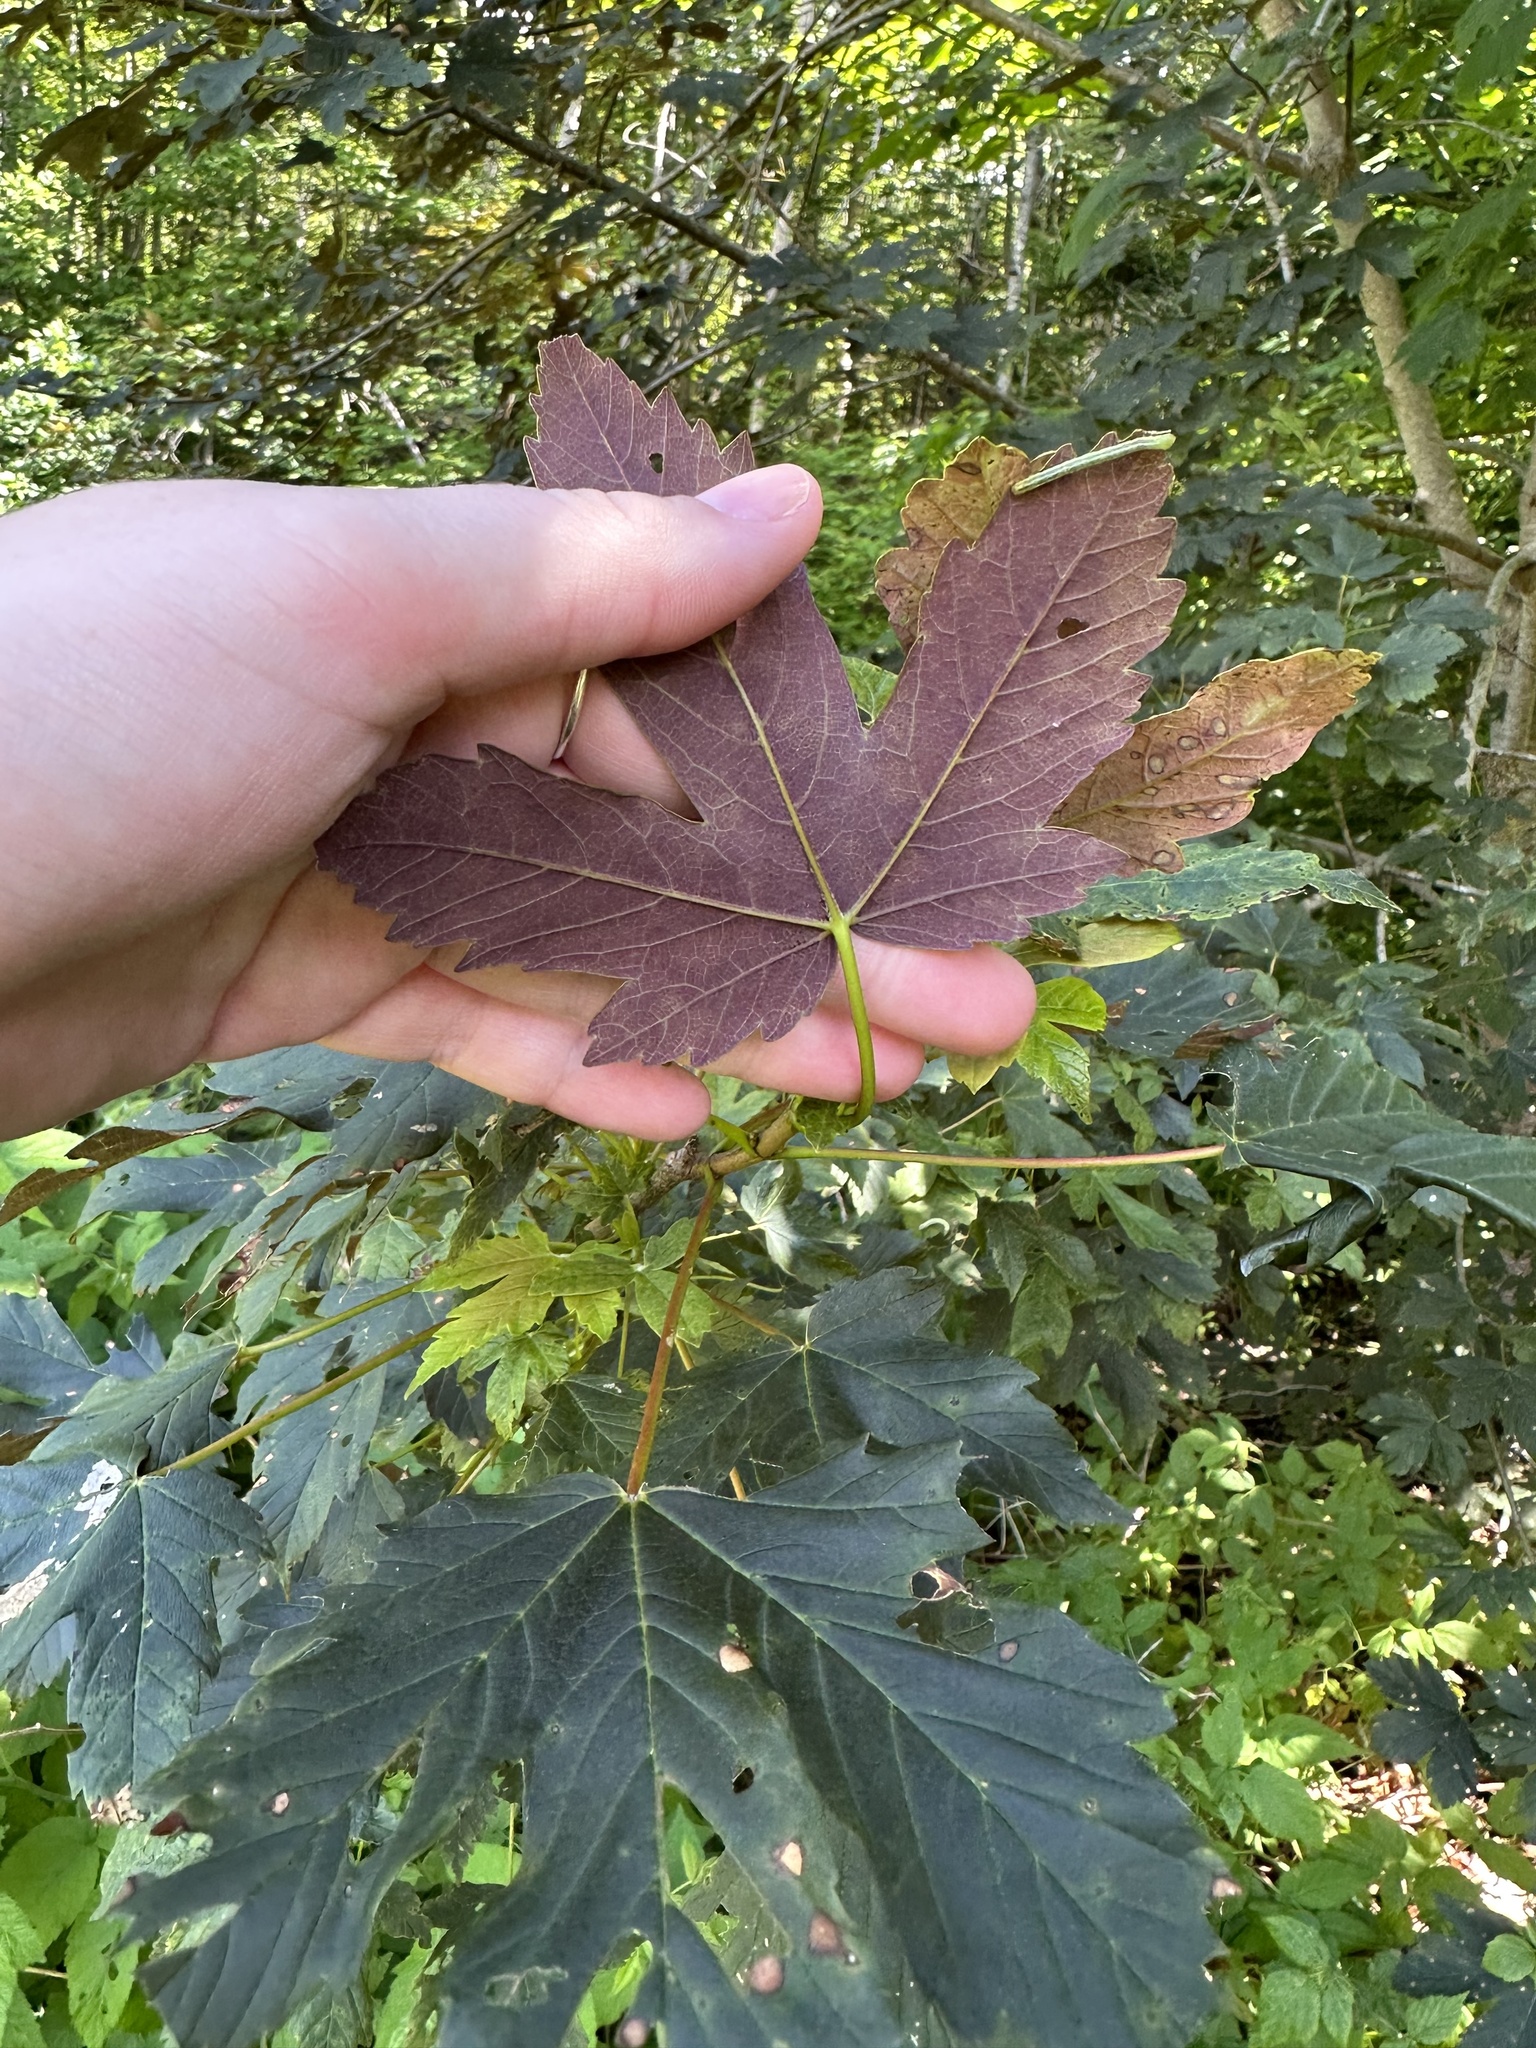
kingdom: Plantae
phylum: Tracheophyta
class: Magnoliopsida
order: Sapindales
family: Sapindaceae
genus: Acer
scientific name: Acer pseudoplatanus
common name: Sycamore
